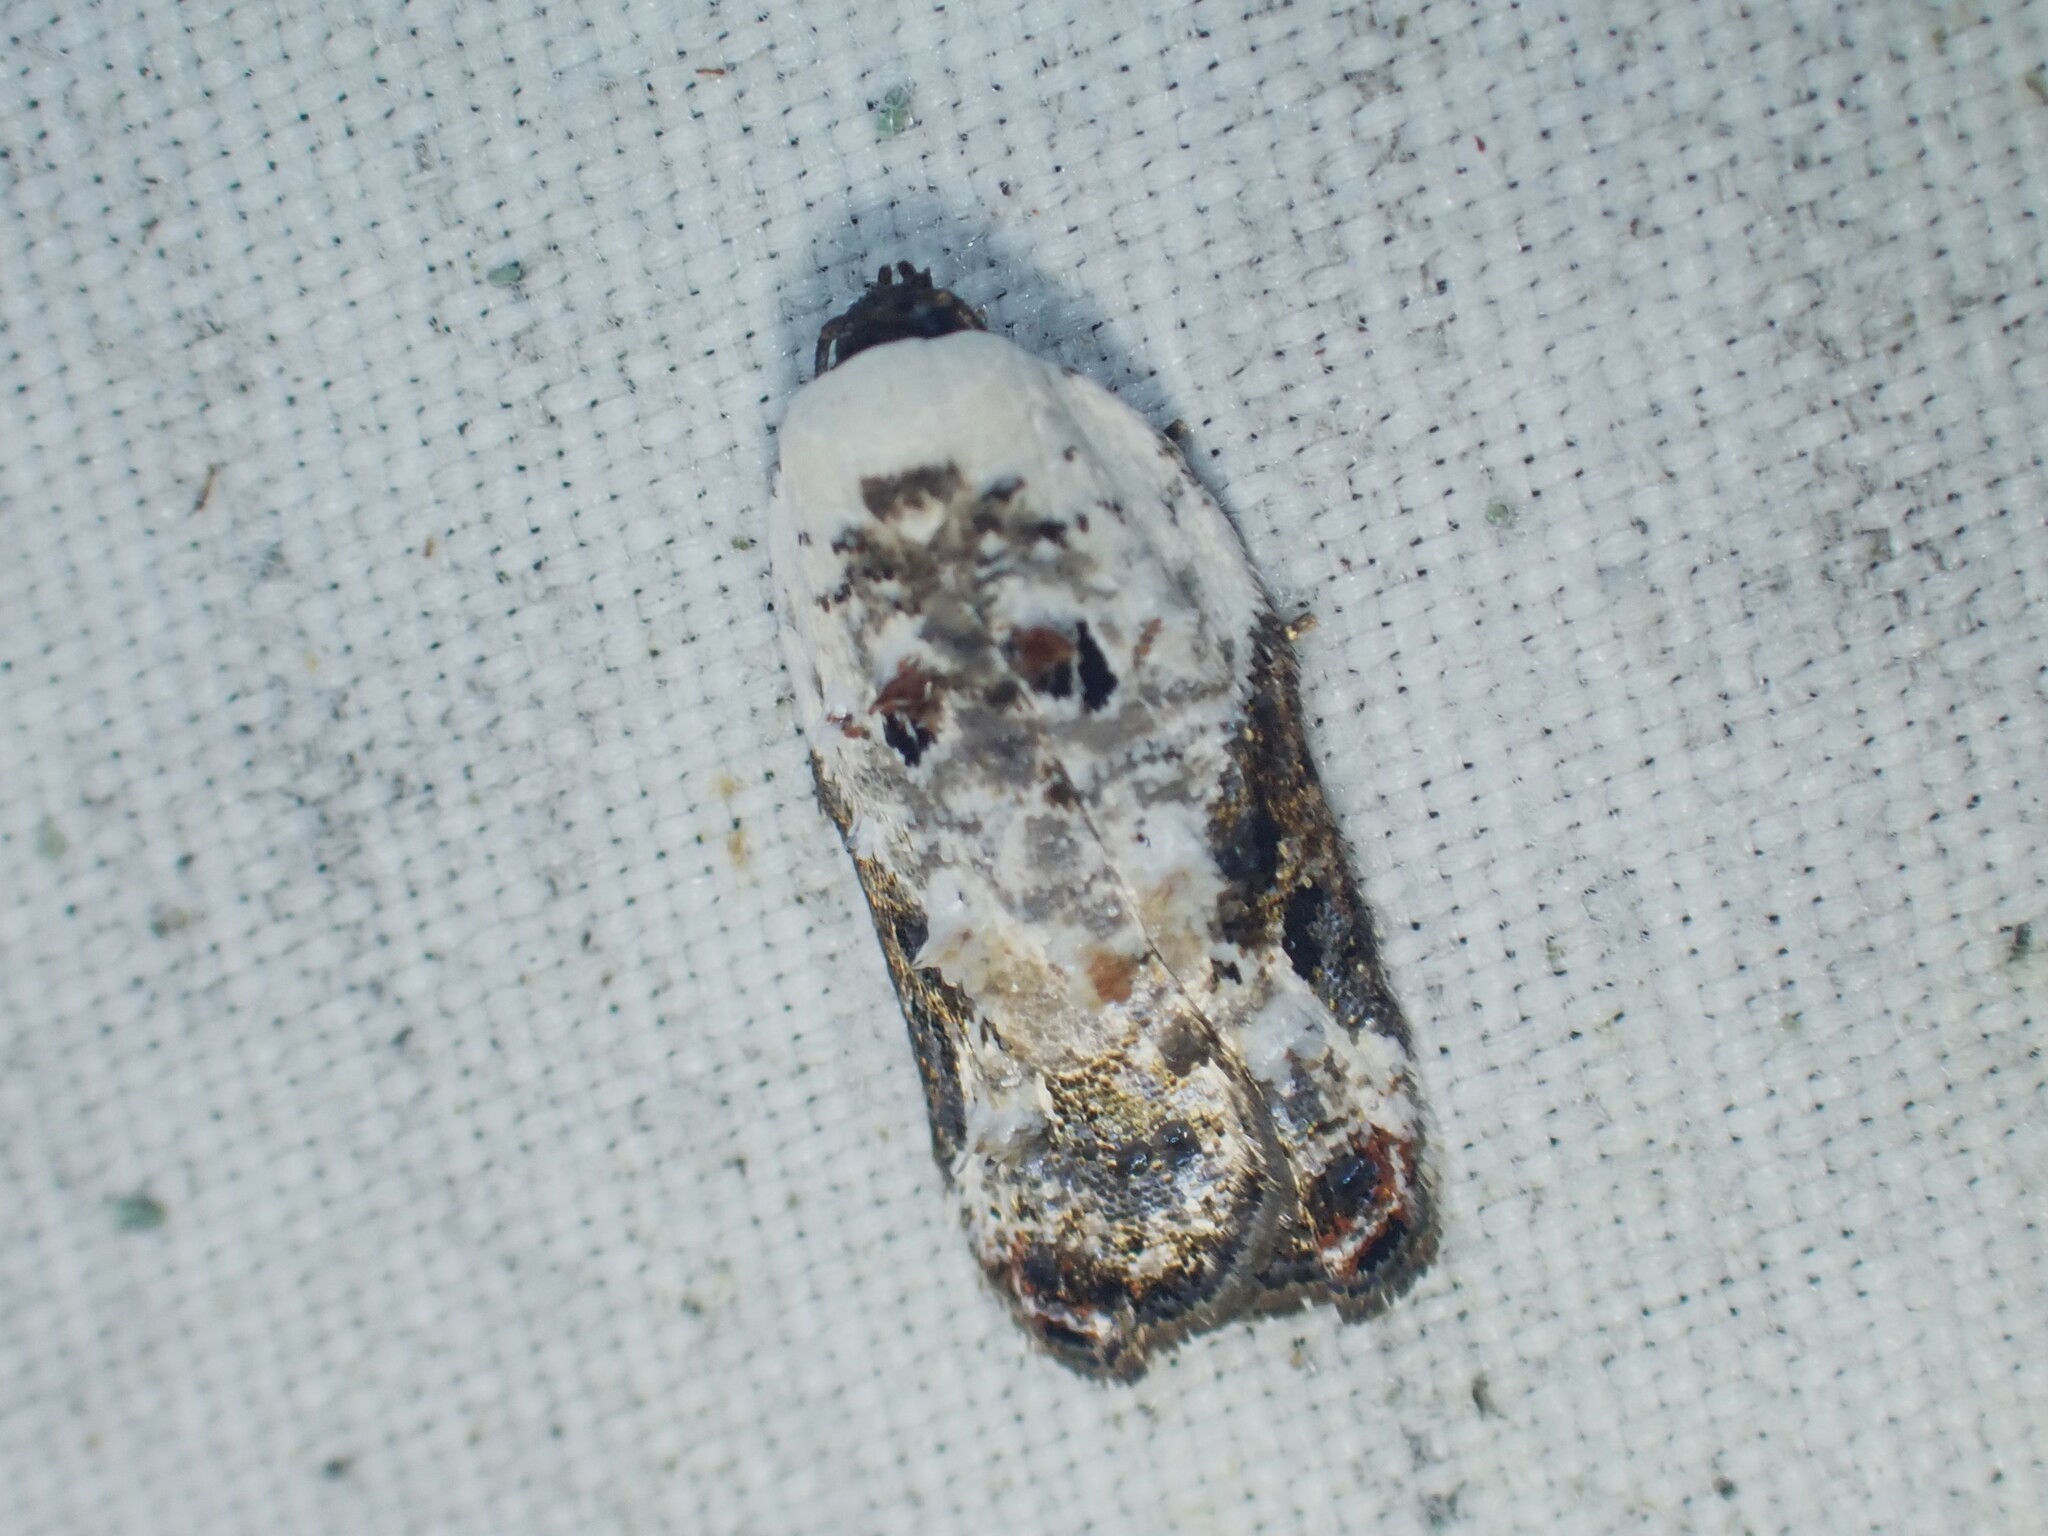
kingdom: Animalia
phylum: Arthropoda
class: Insecta
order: Lepidoptera
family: Tortricidae
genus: Acleris
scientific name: Acleris nivisellana
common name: Snowy-shouldered acleris moth
